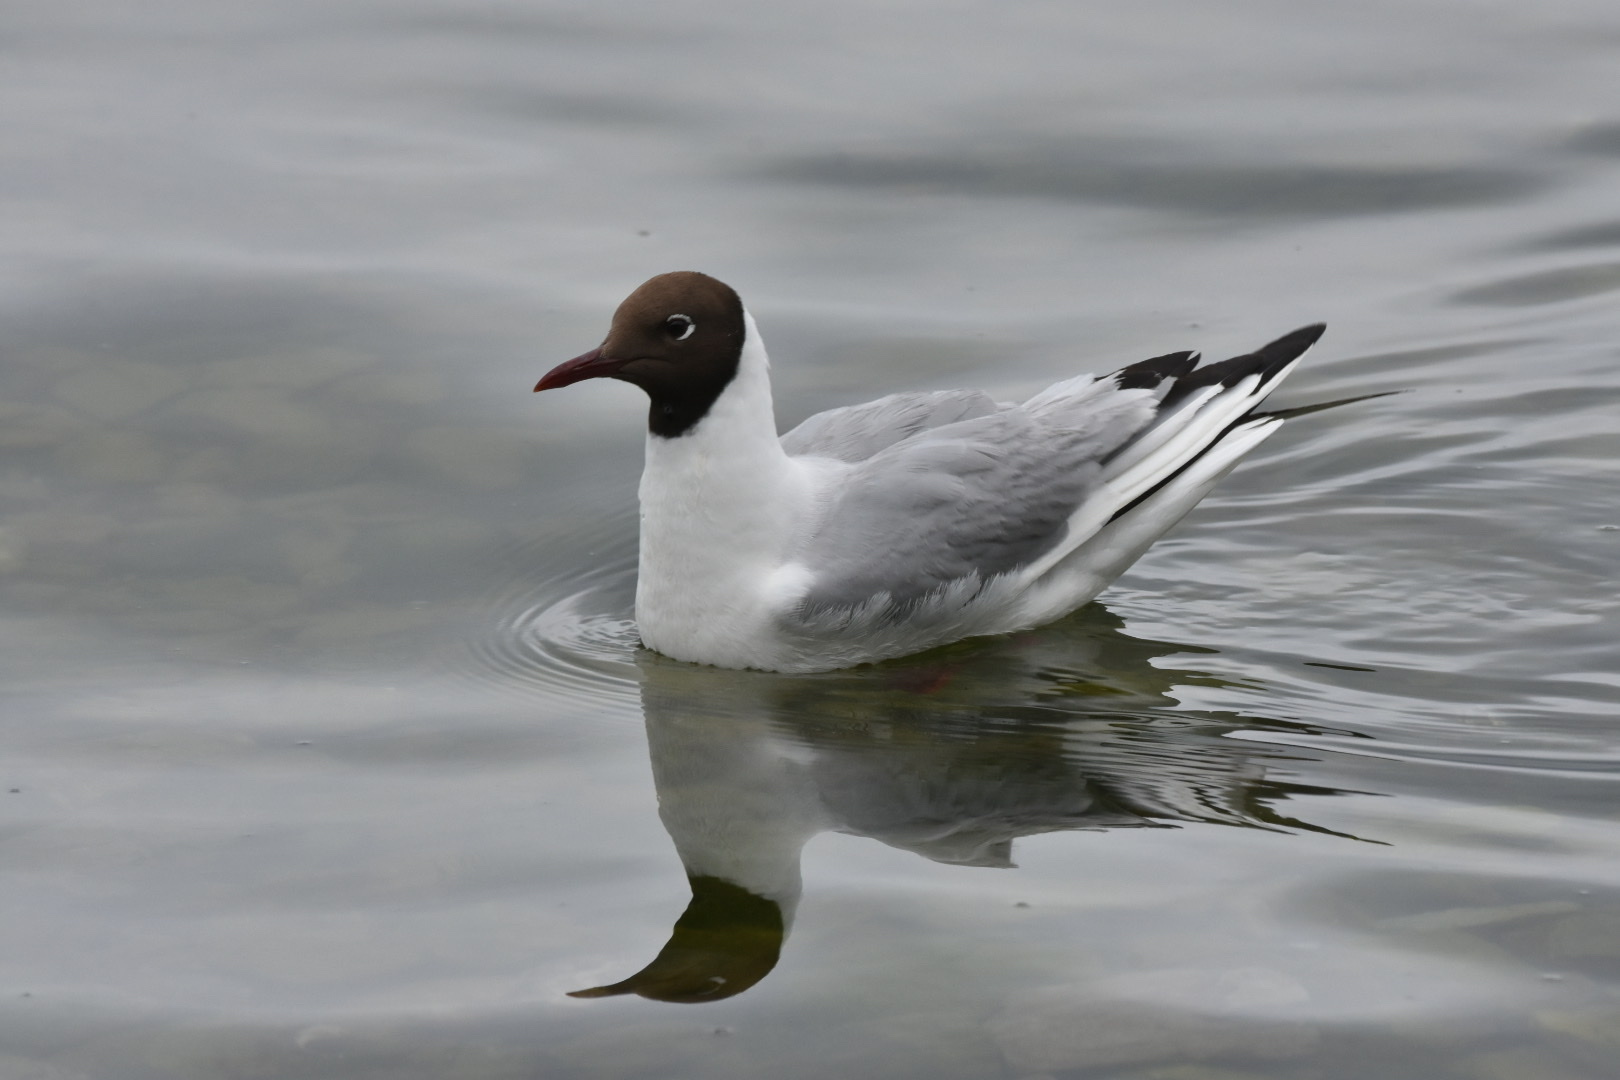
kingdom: Animalia
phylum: Chordata
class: Aves
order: Charadriiformes
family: Laridae
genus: Chroicocephalus
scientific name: Chroicocephalus ridibundus
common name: Black-headed gull
